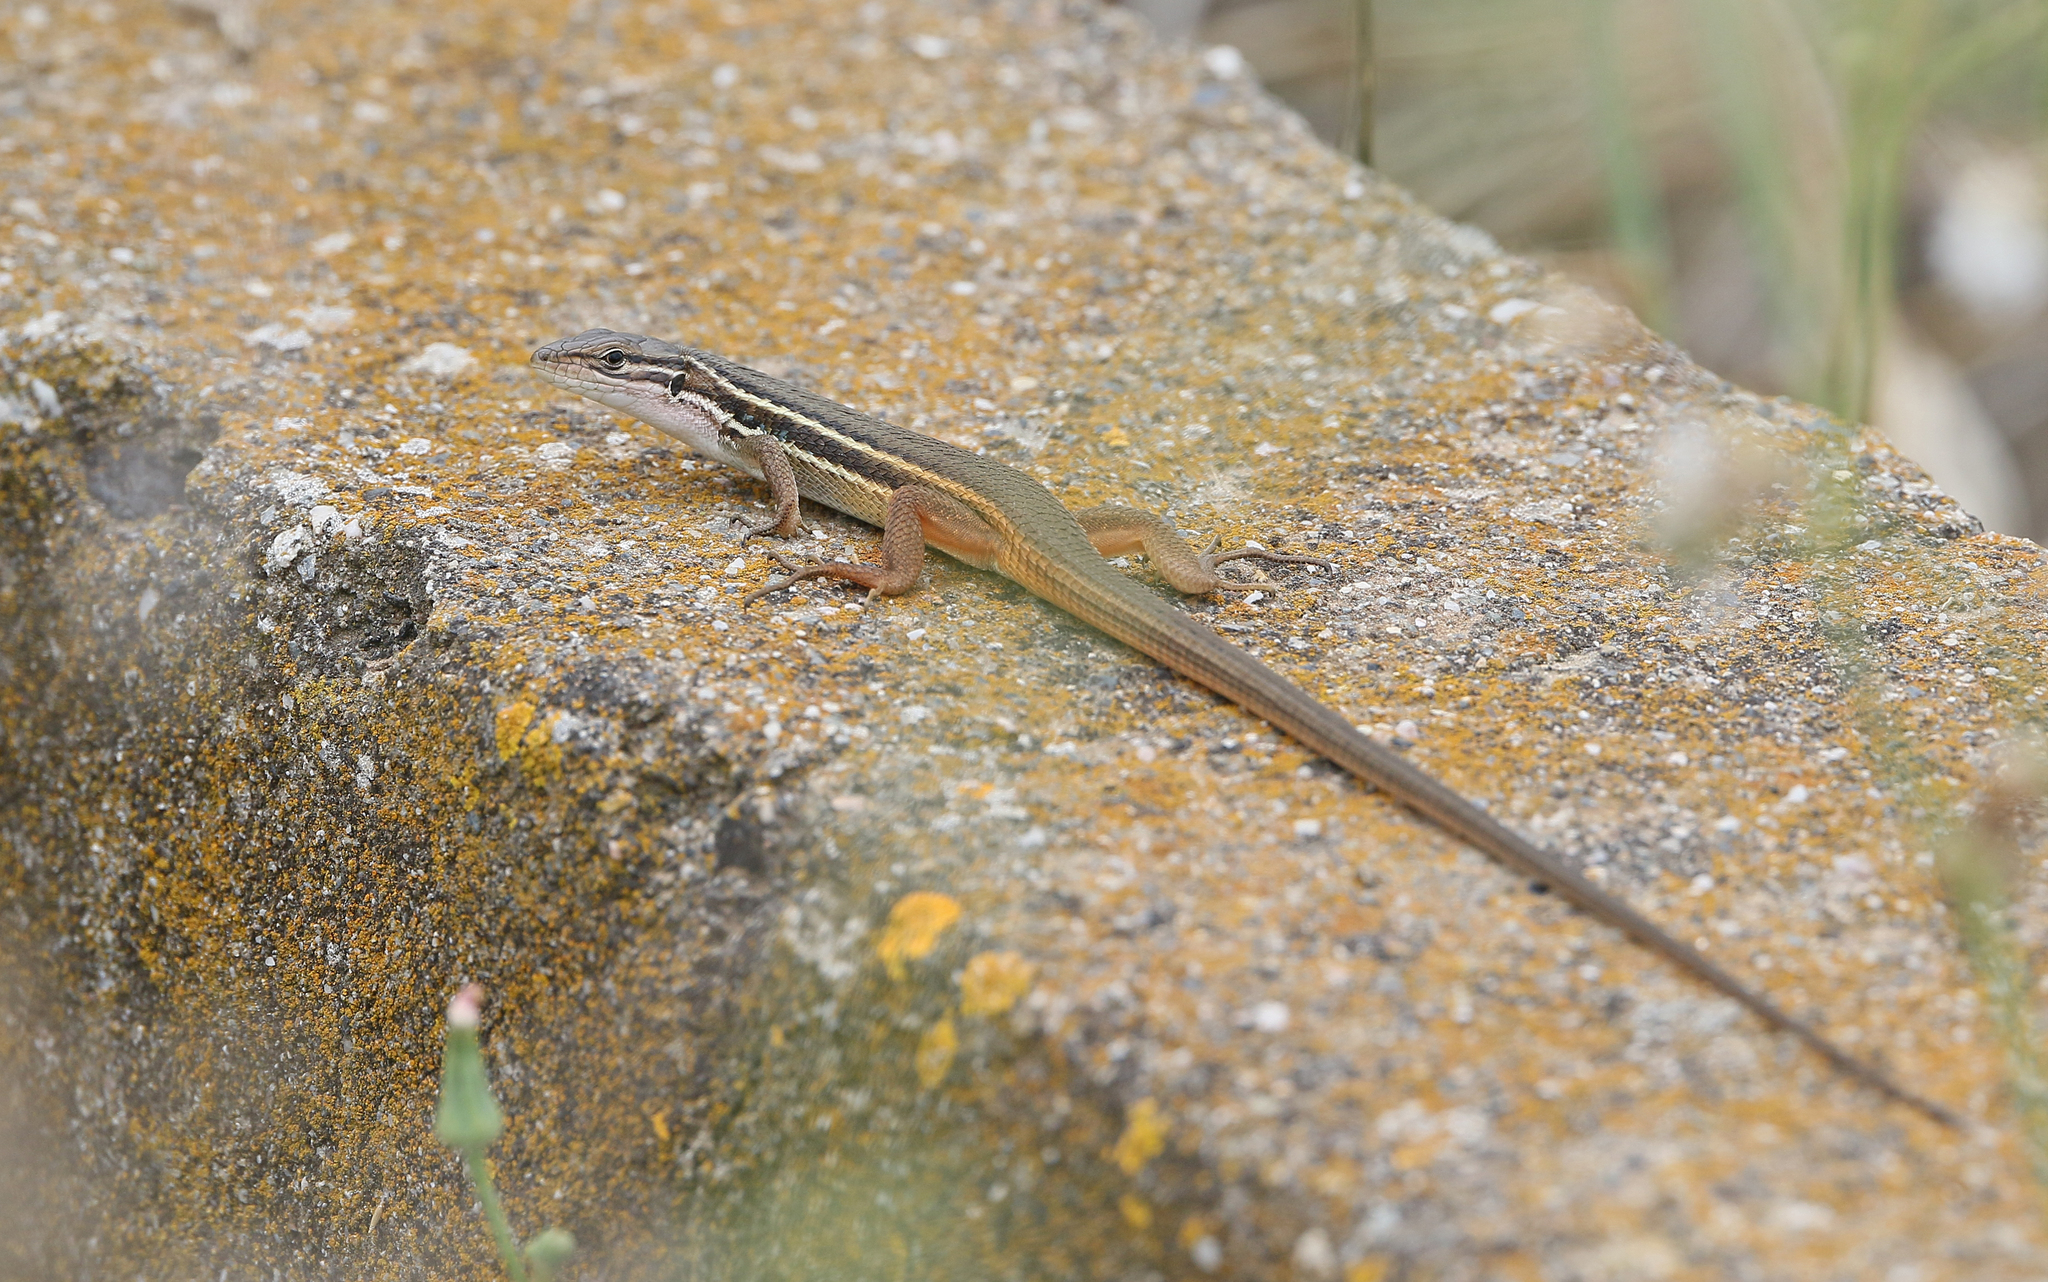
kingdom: Animalia
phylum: Chordata
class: Squamata
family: Lacertidae
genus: Psammodromus
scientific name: Psammodromus algirus
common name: Algerian psammodromus
